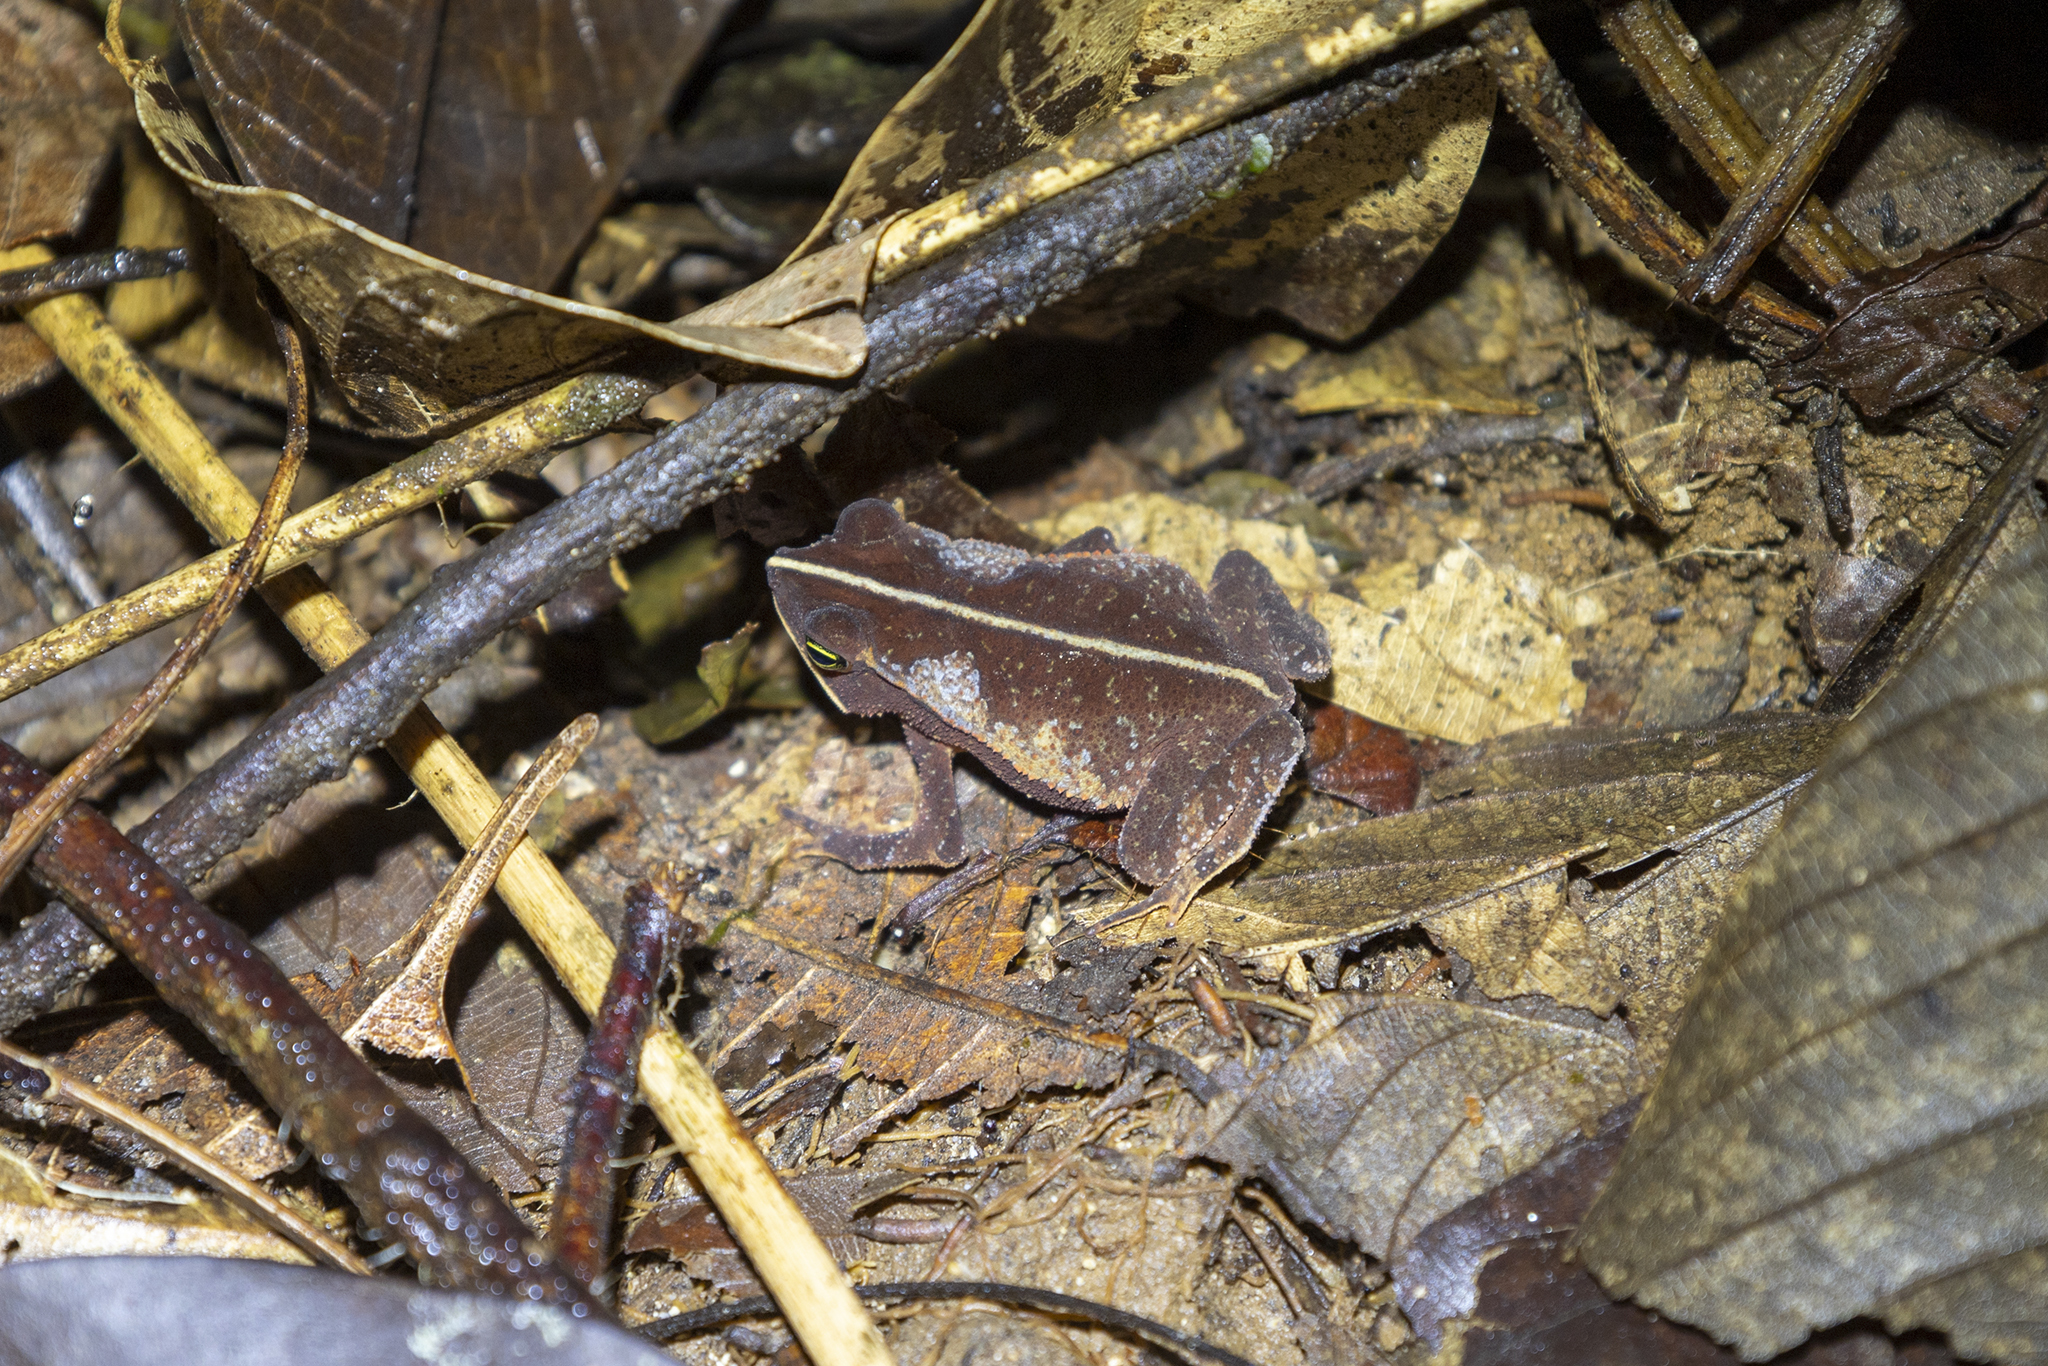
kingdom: Animalia
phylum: Chordata
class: Amphibia
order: Anura
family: Bufonidae
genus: Rhinella
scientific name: Rhinella alata
